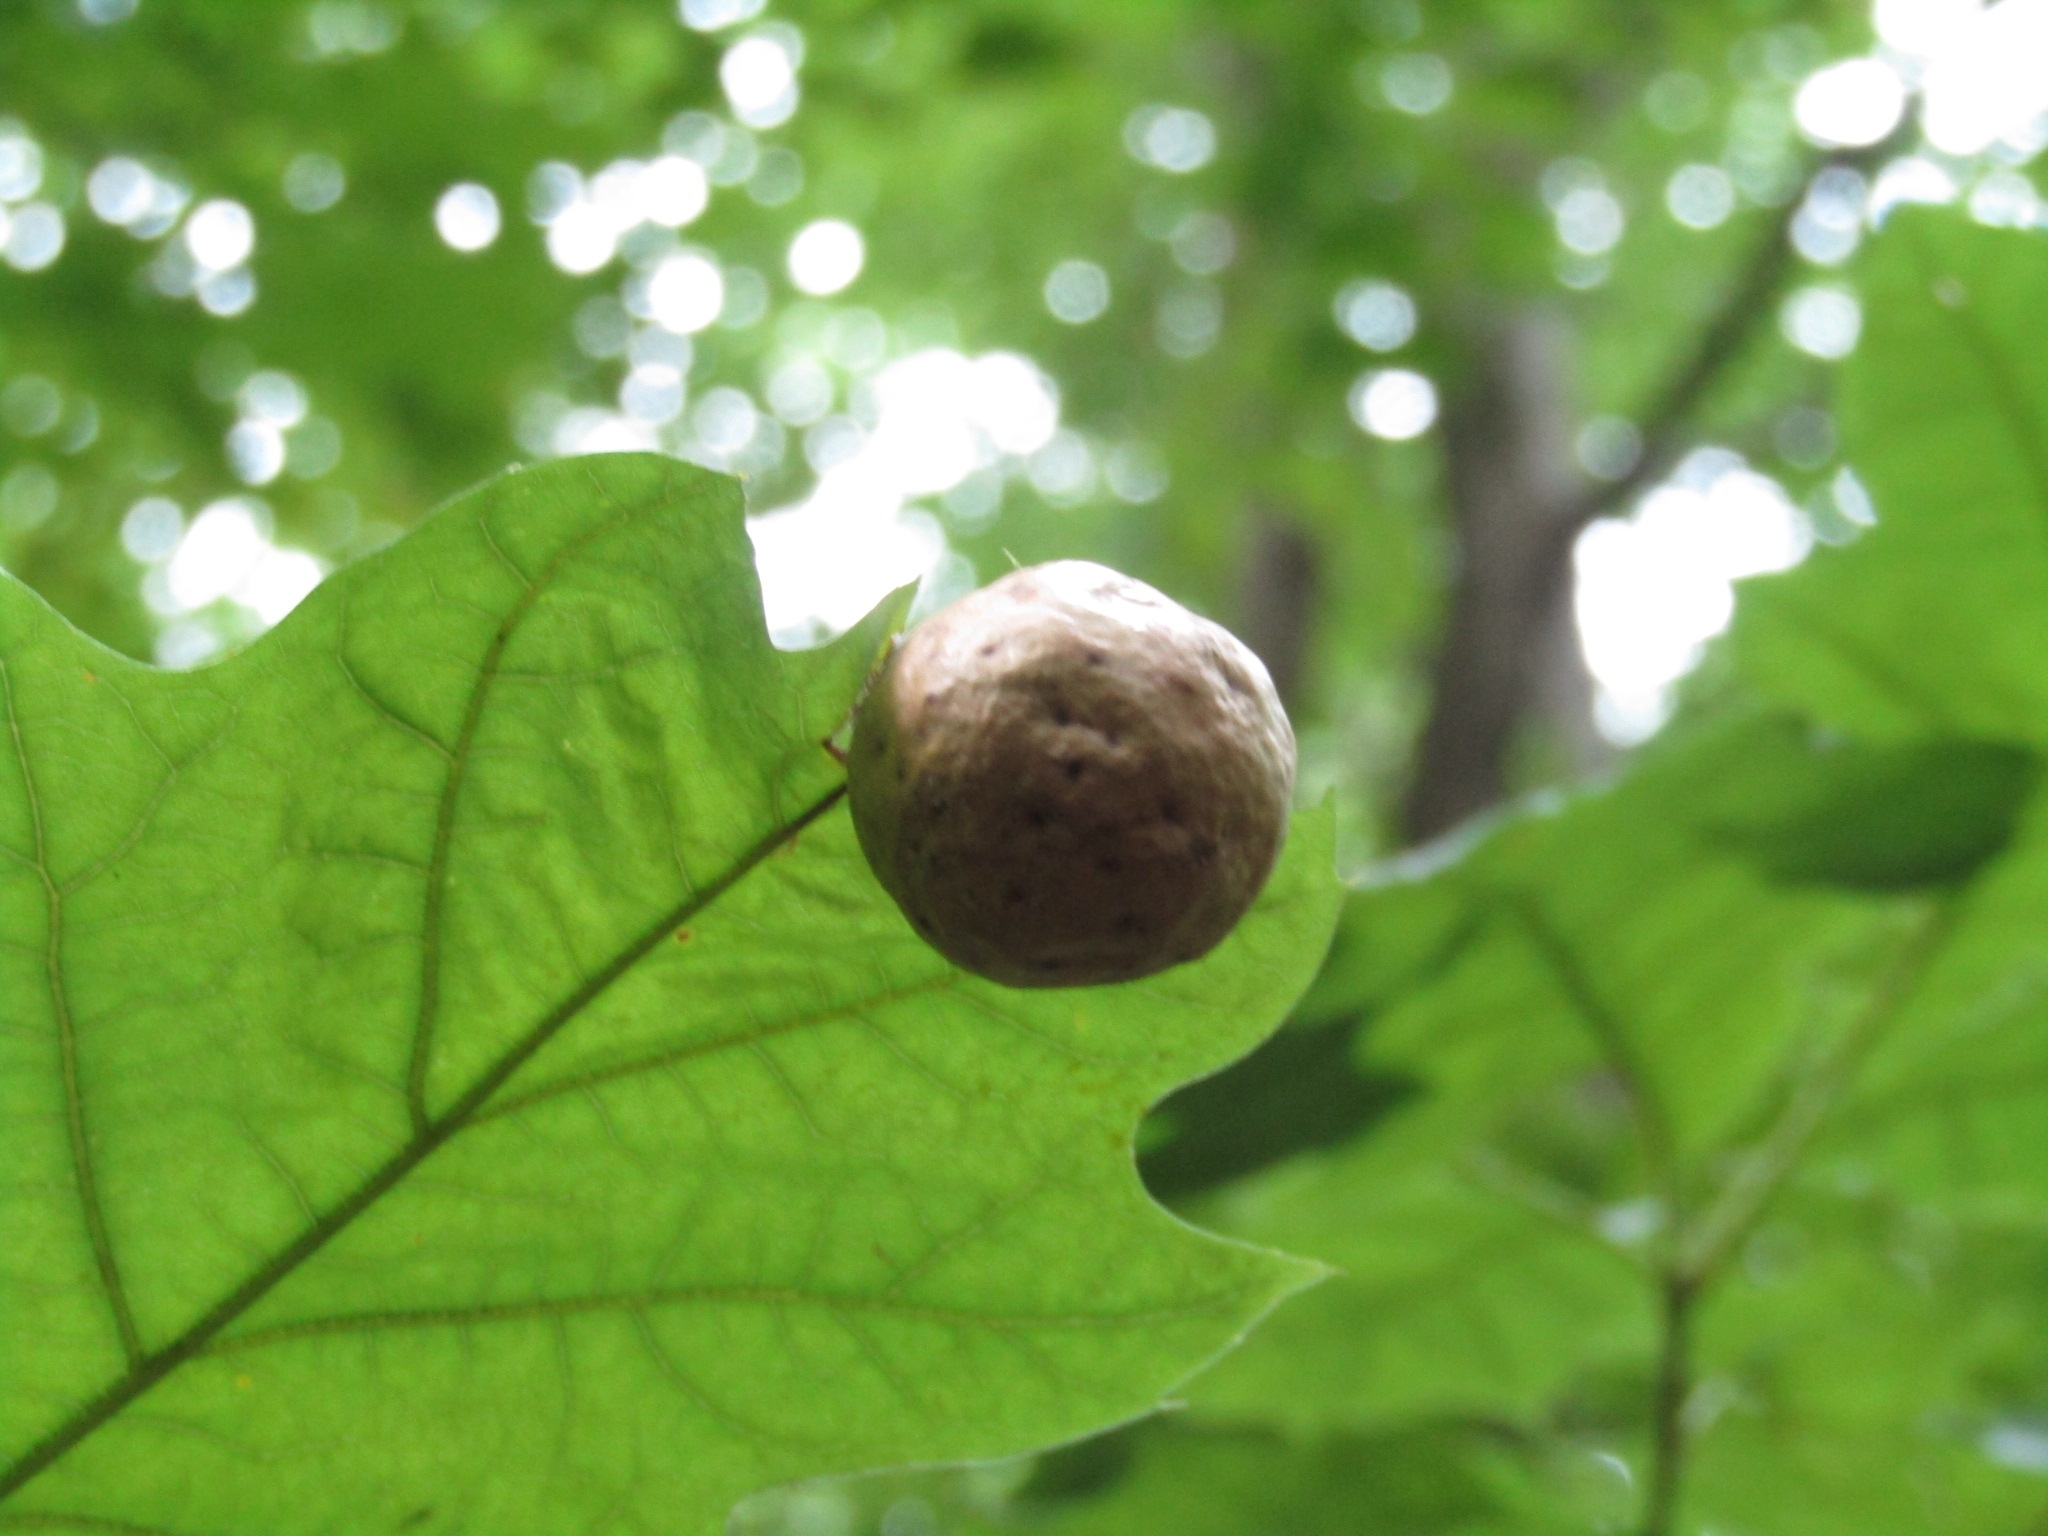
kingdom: Animalia
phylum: Arthropoda
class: Insecta
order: Hymenoptera
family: Cynipidae
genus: Amphibolips
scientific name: Amphibolips
